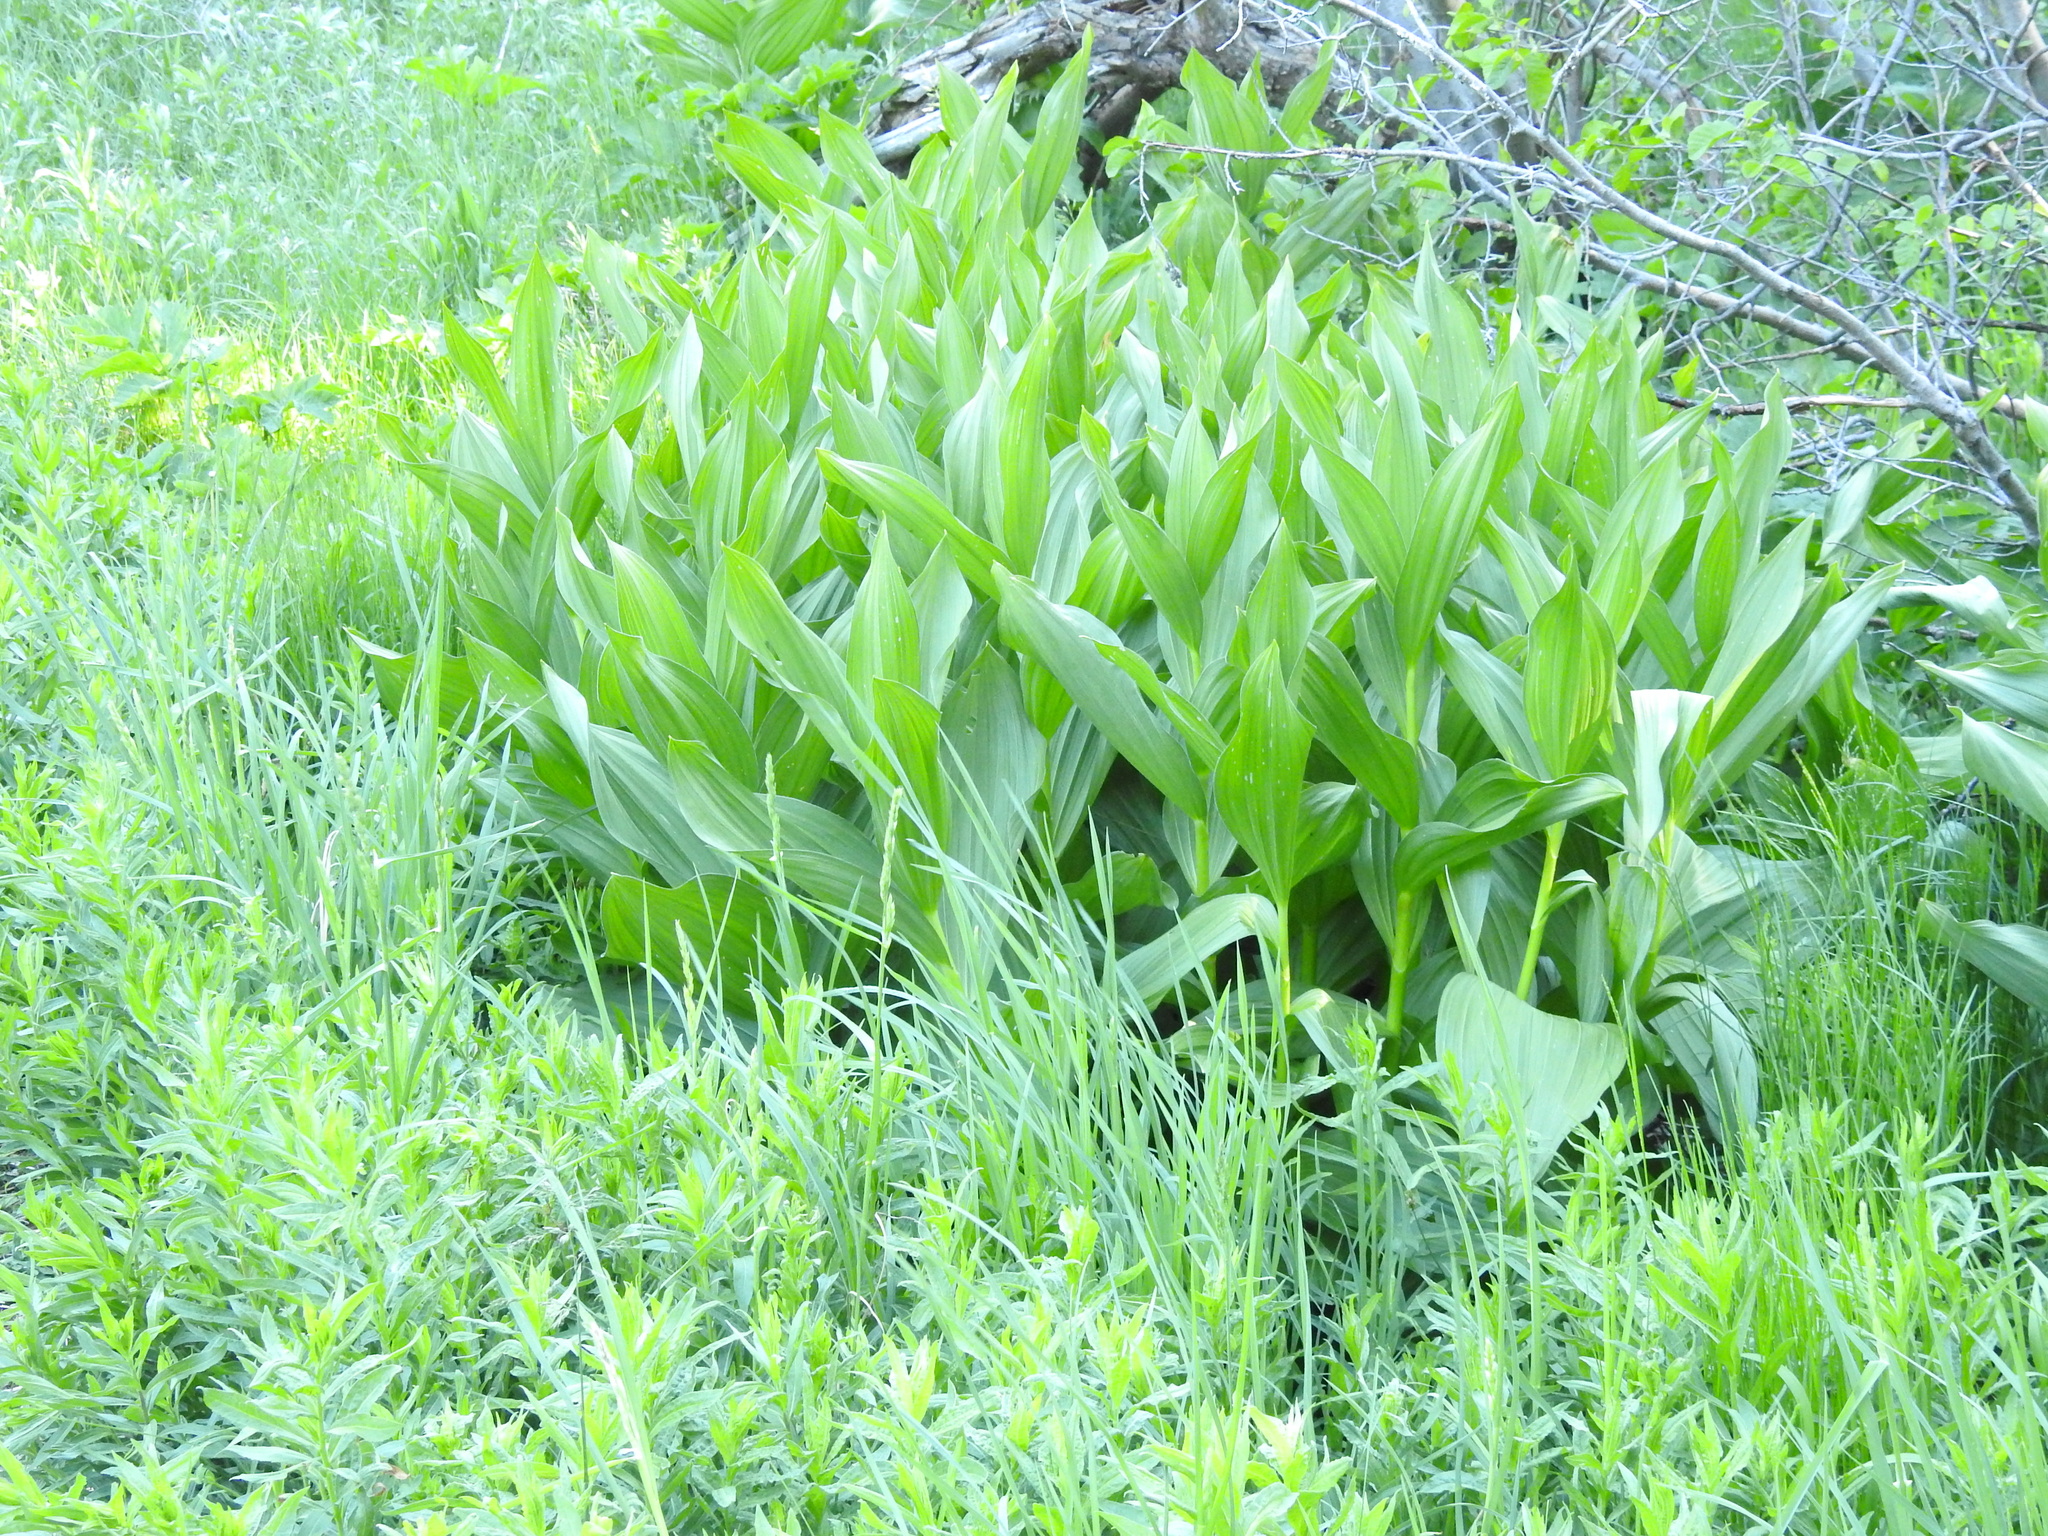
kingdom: Plantae
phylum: Tracheophyta
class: Liliopsida
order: Liliales
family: Melanthiaceae
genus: Veratrum
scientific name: Veratrum californicum
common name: California veratrum
